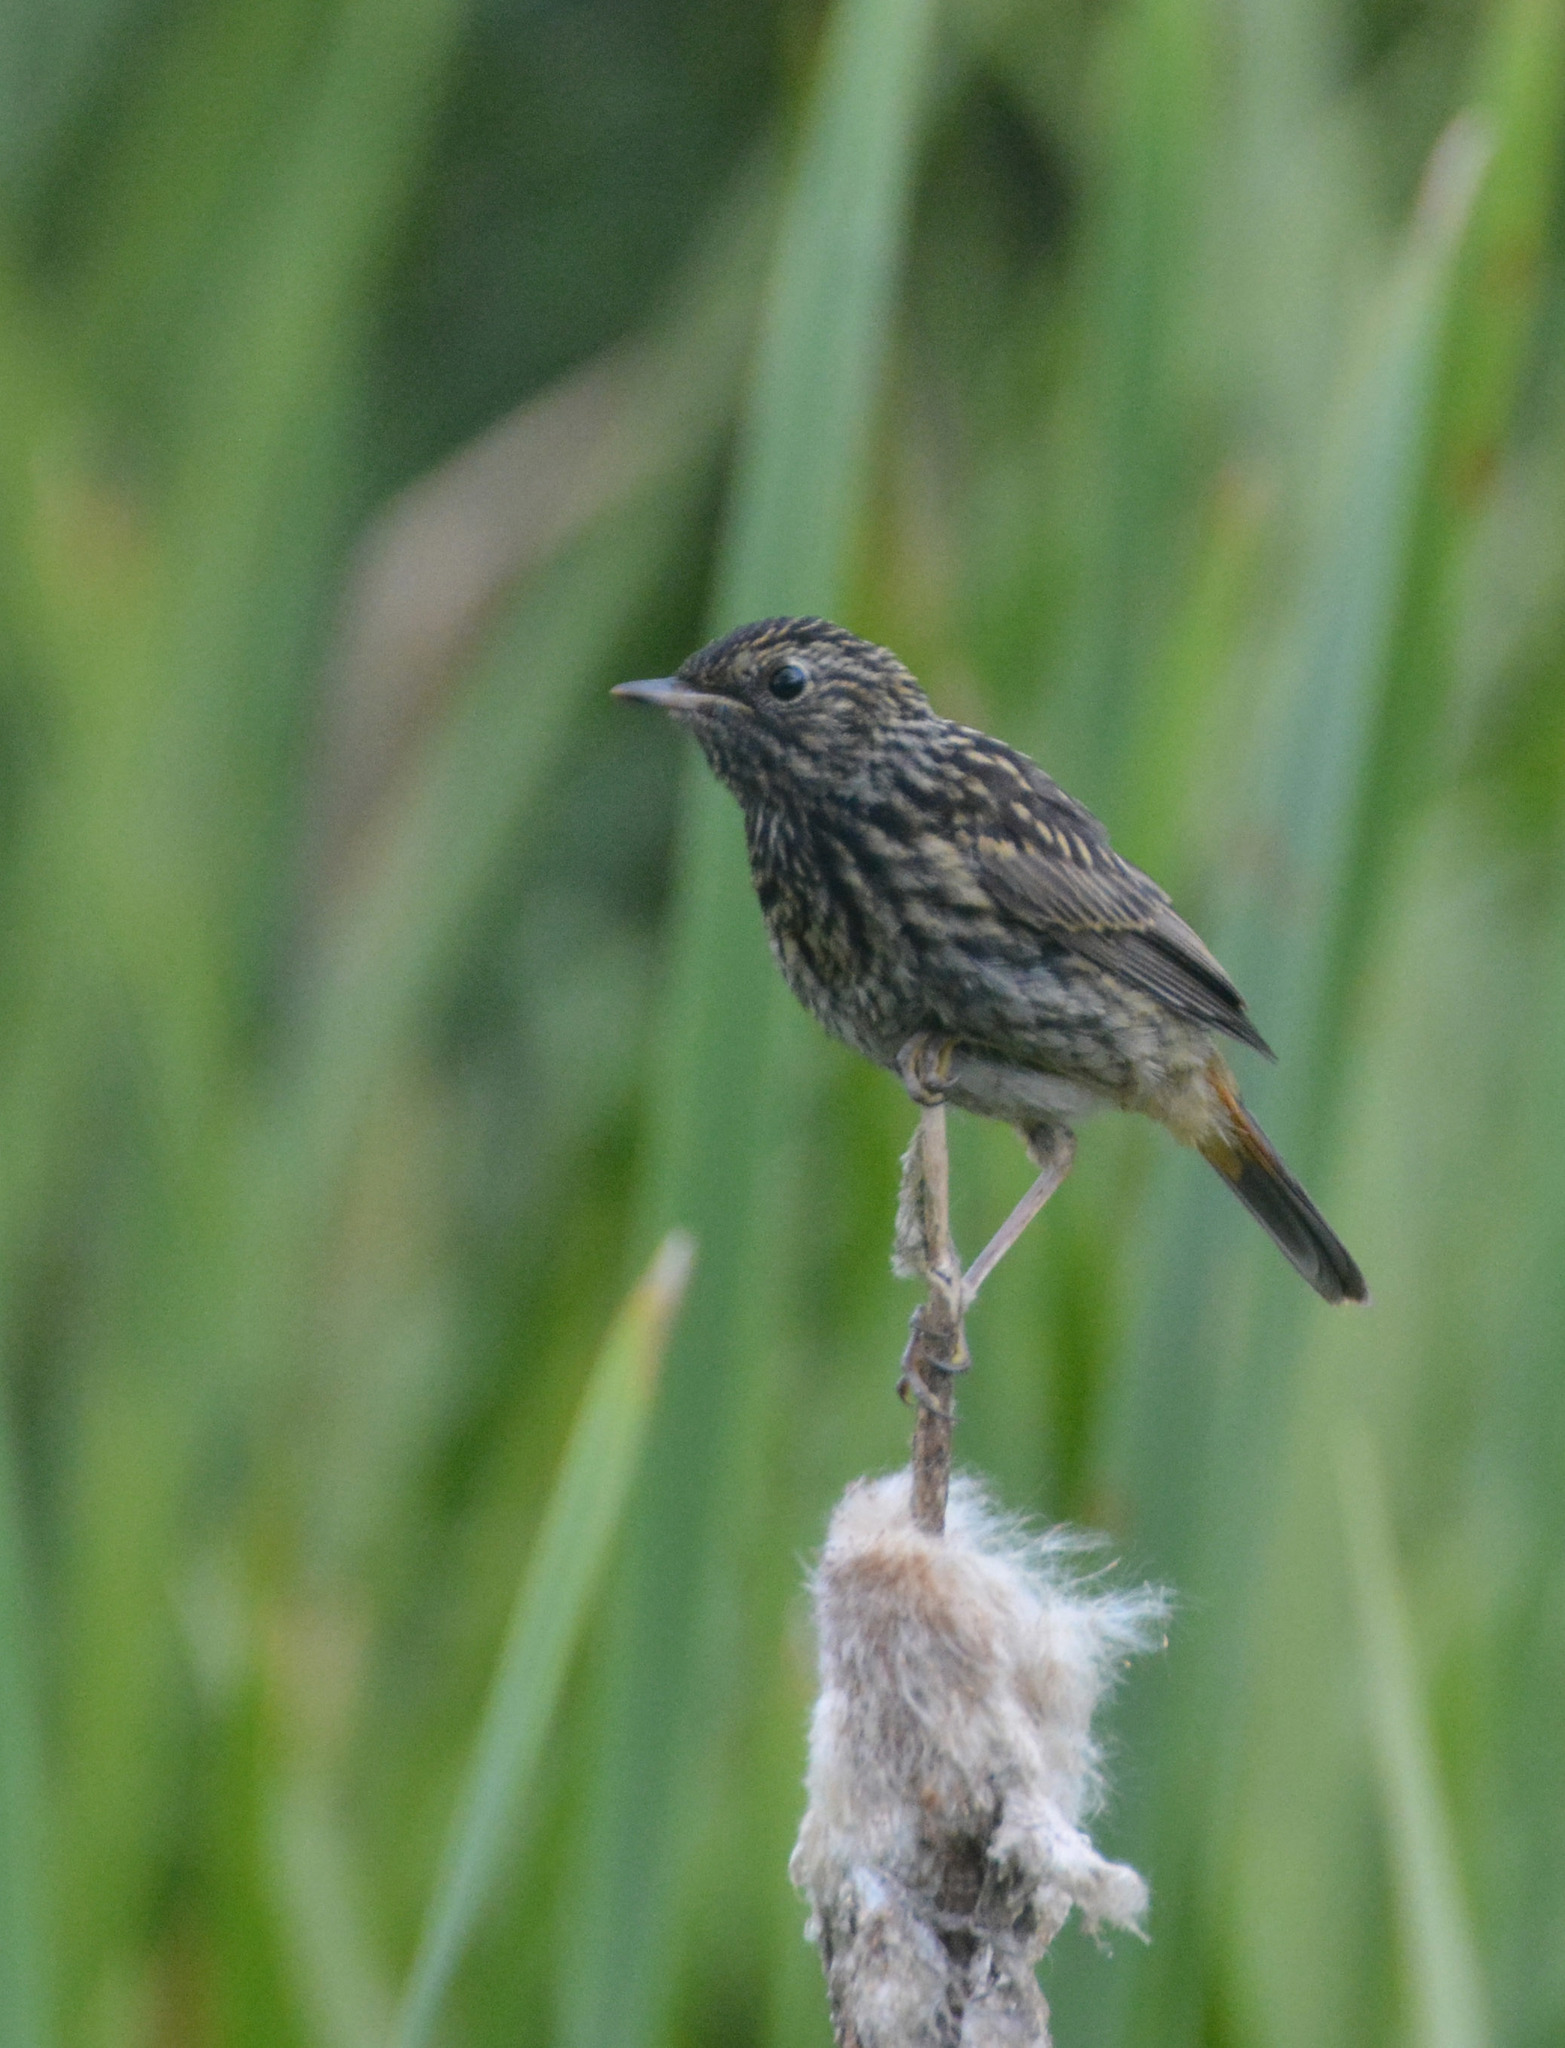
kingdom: Animalia
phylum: Chordata
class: Aves
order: Passeriformes
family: Muscicapidae
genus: Luscinia
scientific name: Luscinia svecica
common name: Bluethroat
